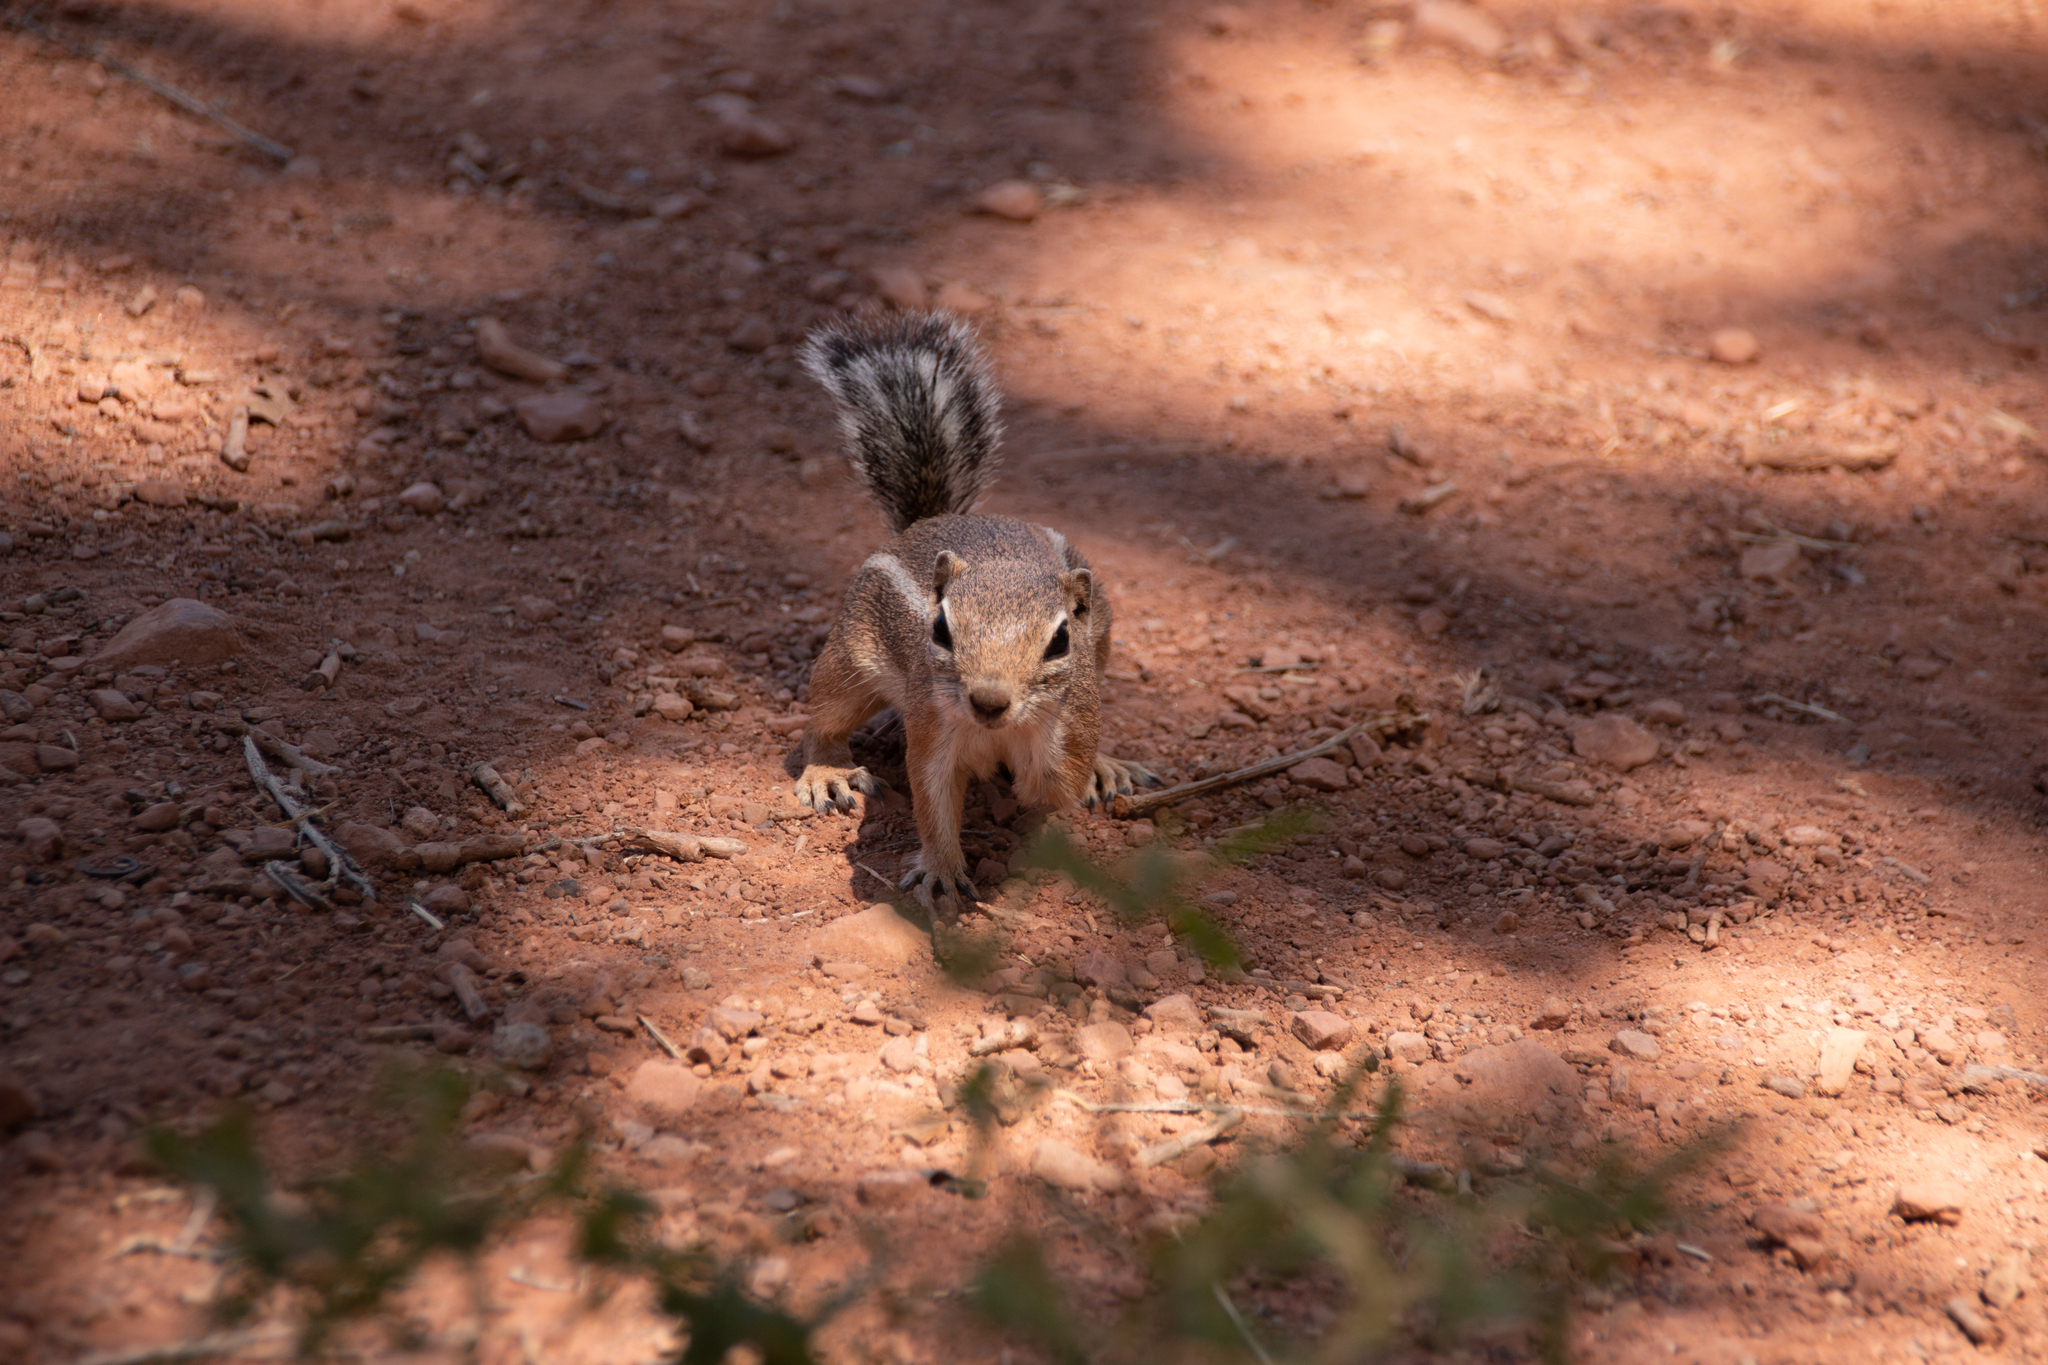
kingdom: Animalia
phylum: Chordata
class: Mammalia
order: Rodentia
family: Sciuridae
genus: Ammospermophilus
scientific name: Ammospermophilus leucurus
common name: White-tailed antelope squirrel
